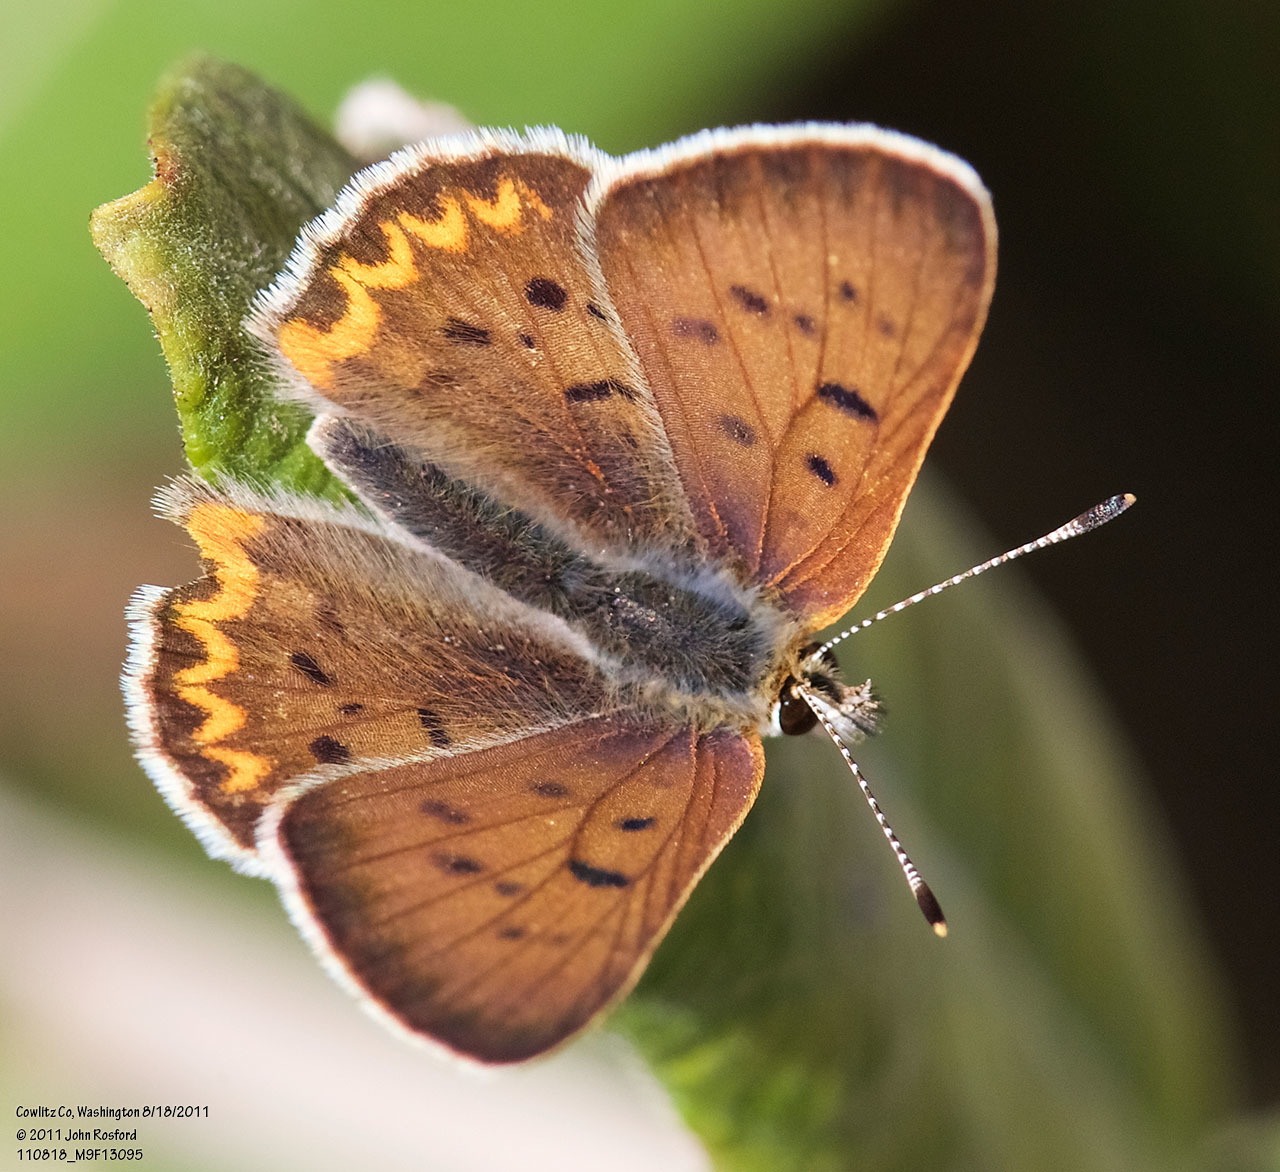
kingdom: Animalia
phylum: Arthropoda
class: Insecta
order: Lepidoptera
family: Lycaenidae
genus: Tharsalea
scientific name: Tharsalea helloides
